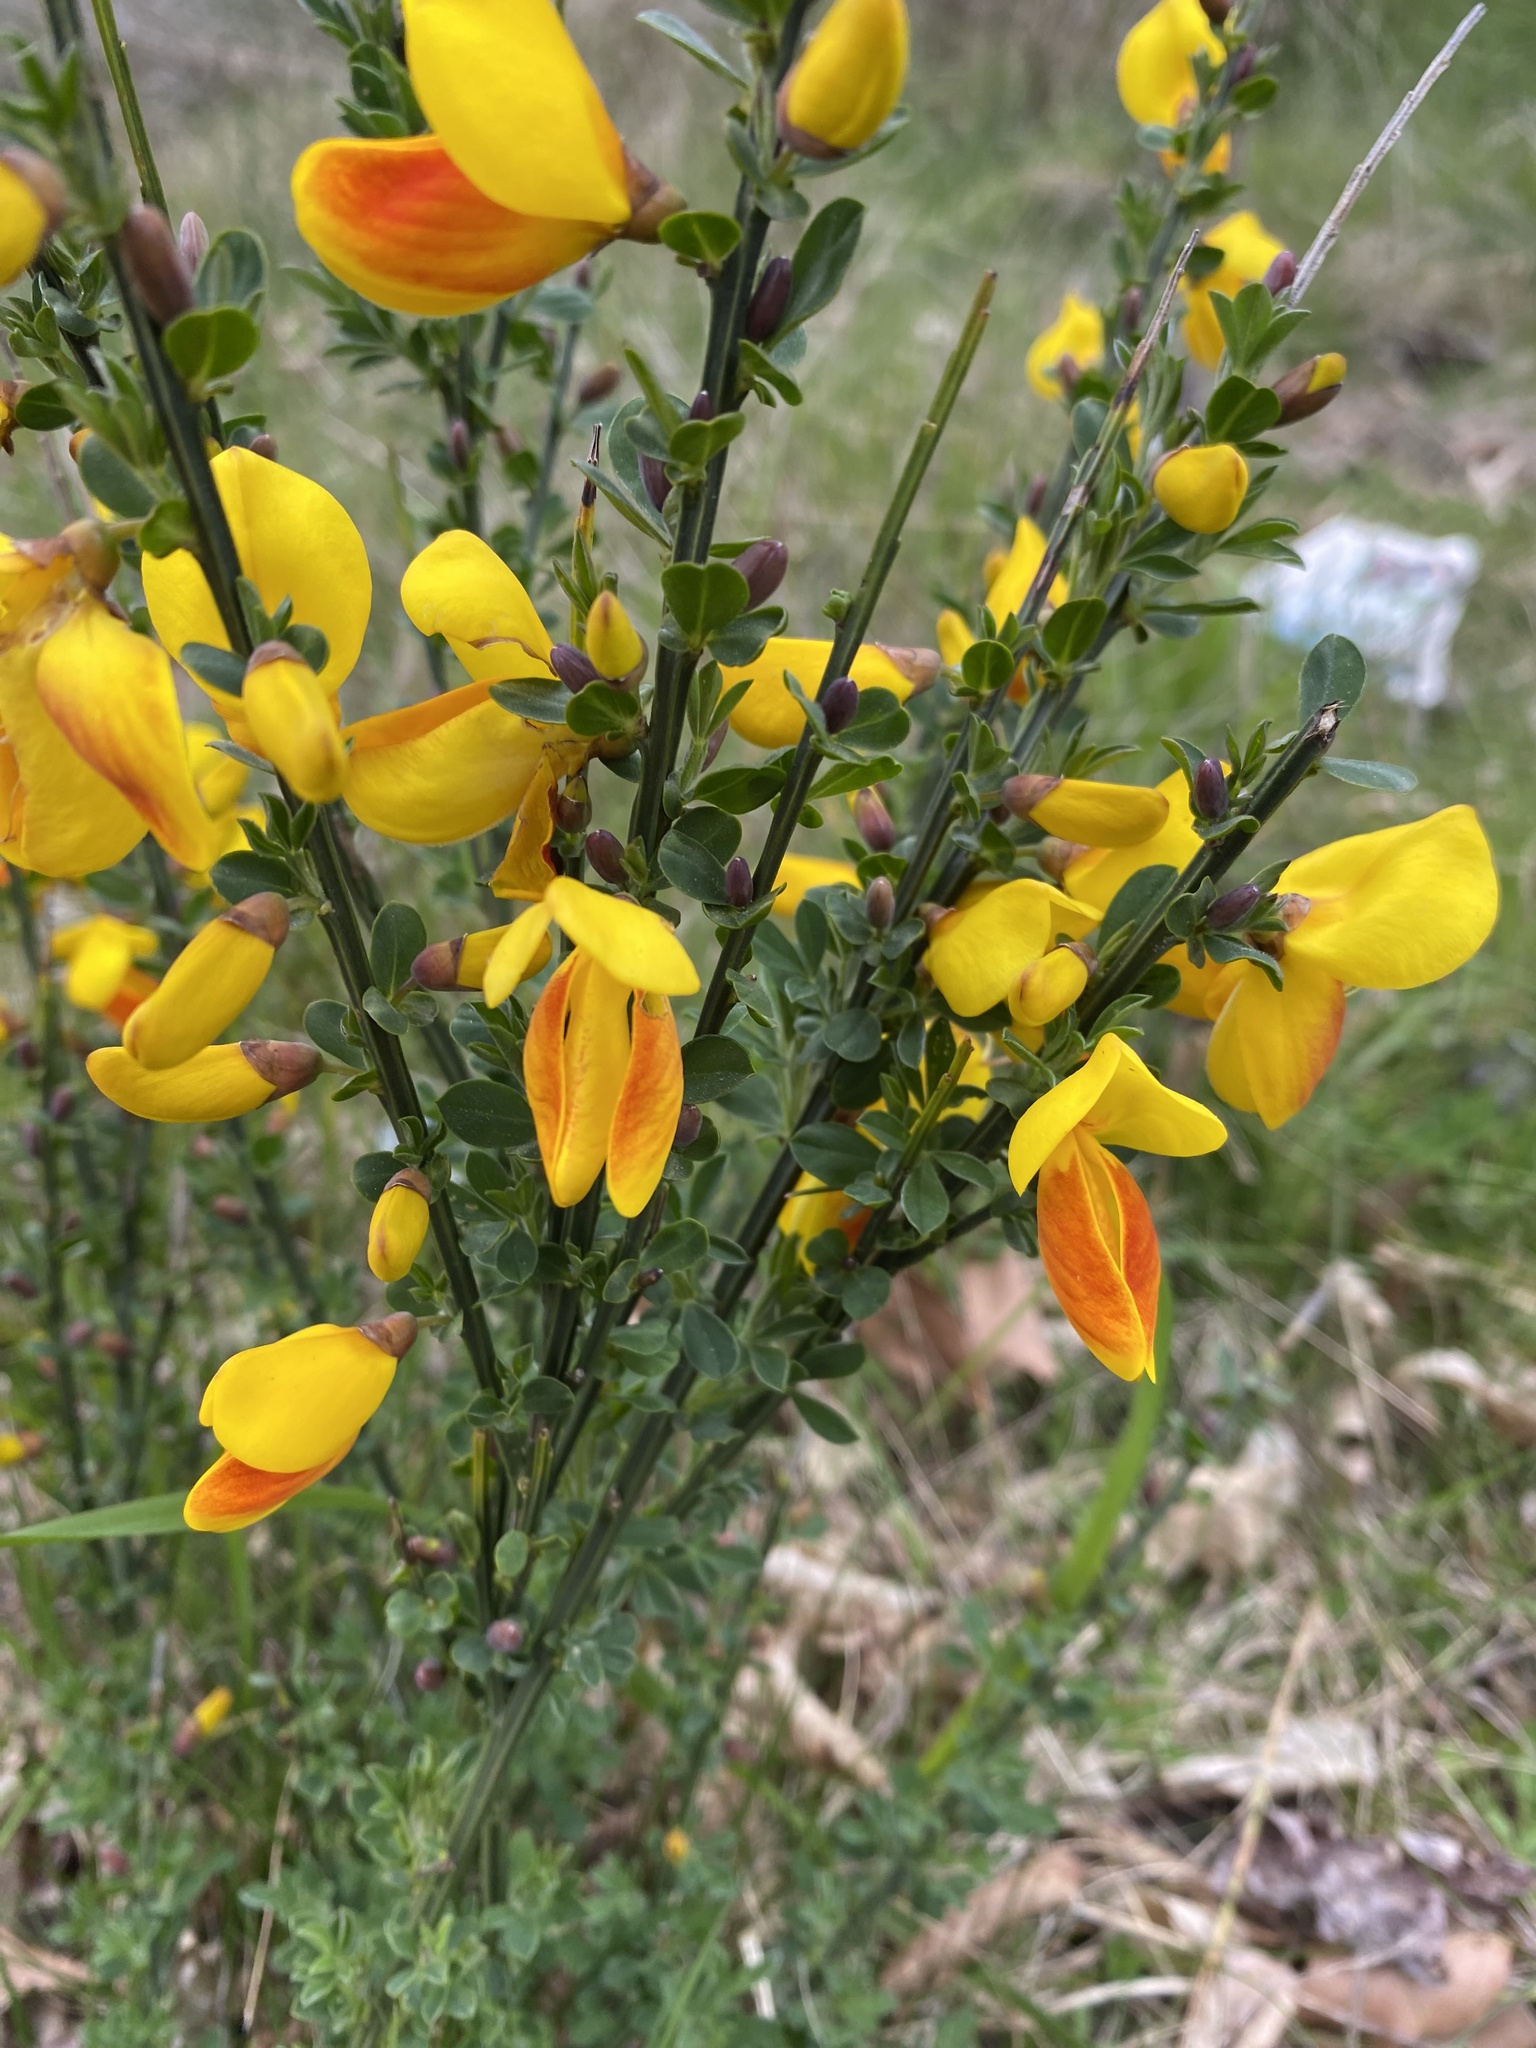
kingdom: Plantae
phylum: Tracheophyta
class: Magnoliopsida
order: Fabales
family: Fabaceae
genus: Cytisus
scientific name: Cytisus scoparius
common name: Scotch broom
